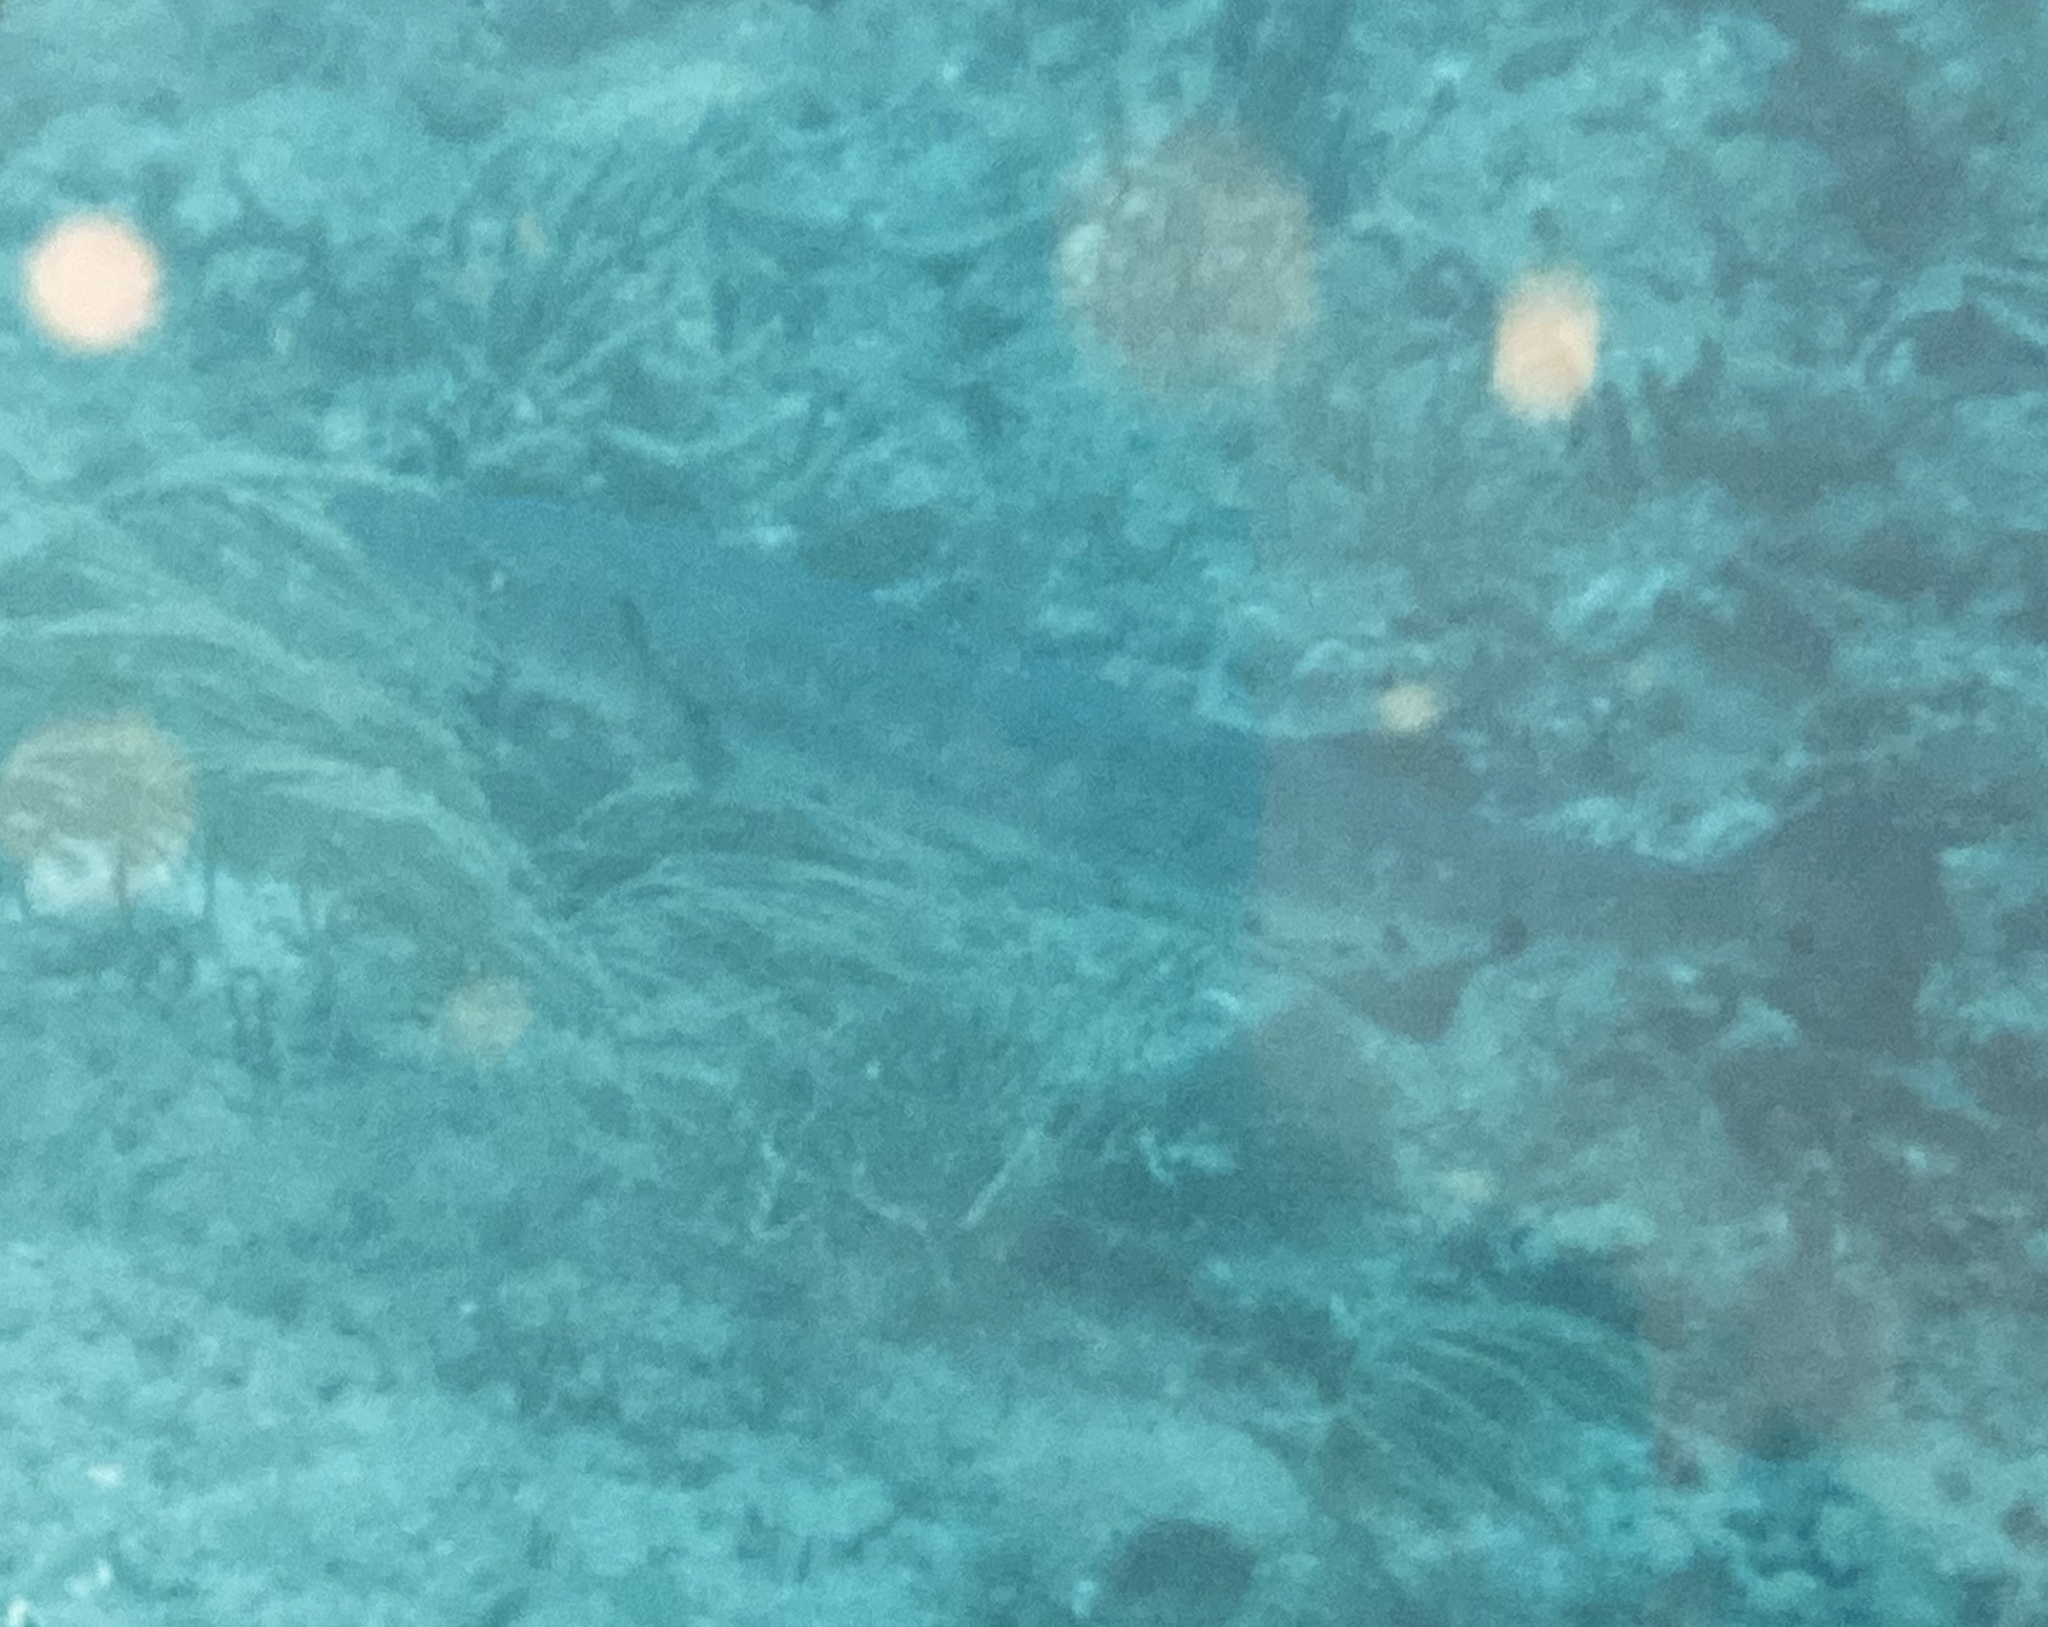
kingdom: Animalia
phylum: Chordata
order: Perciformes
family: Sphyraenidae
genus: Sphyraena
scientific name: Sphyraena barracuda
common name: Great barracuda
